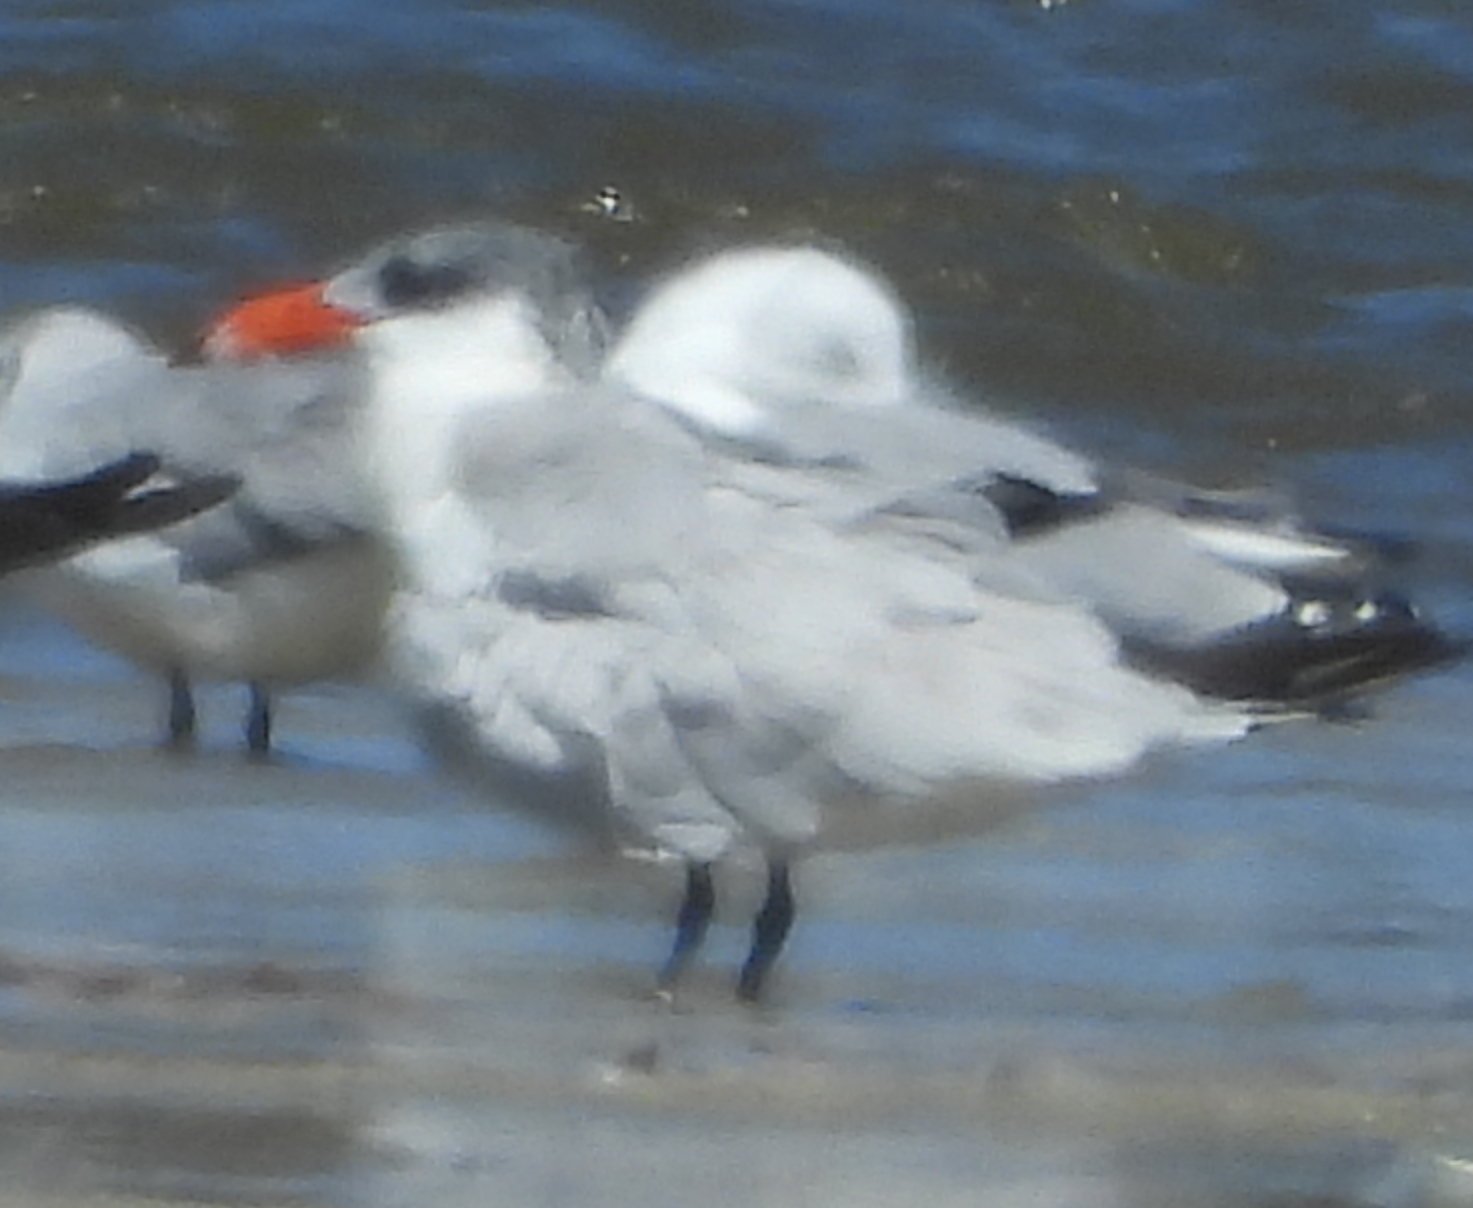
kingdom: Animalia
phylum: Chordata
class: Aves
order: Charadriiformes
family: Laridae
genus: Hydroprogne
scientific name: Hydroprogne caspia
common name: Caspian tern
